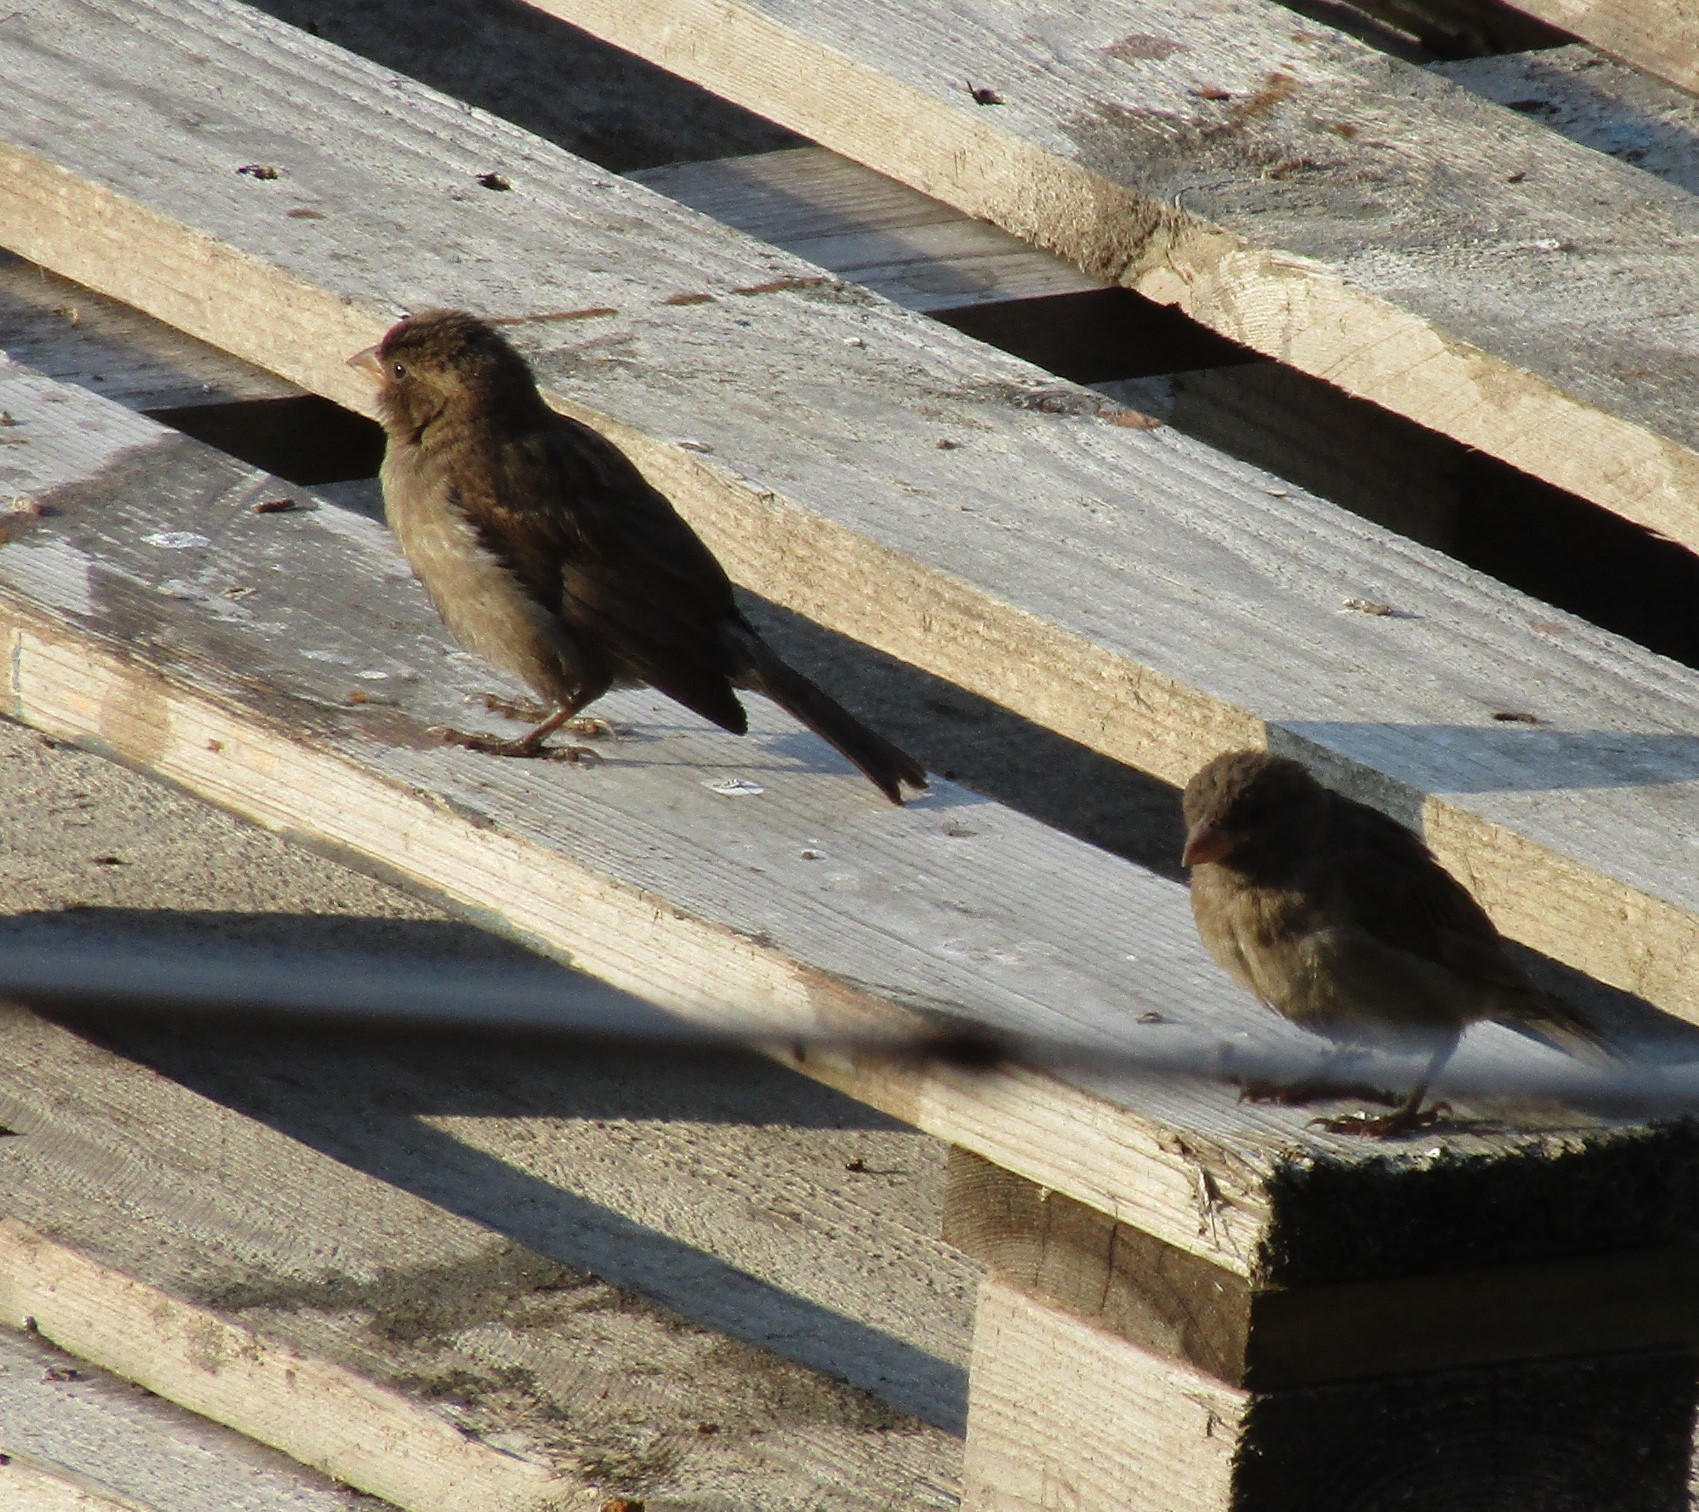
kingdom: Animalia
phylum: Chordata
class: Aves
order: Passeriformes
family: Passeridae
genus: Passer
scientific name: Passer domesticus
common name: House sparrow
